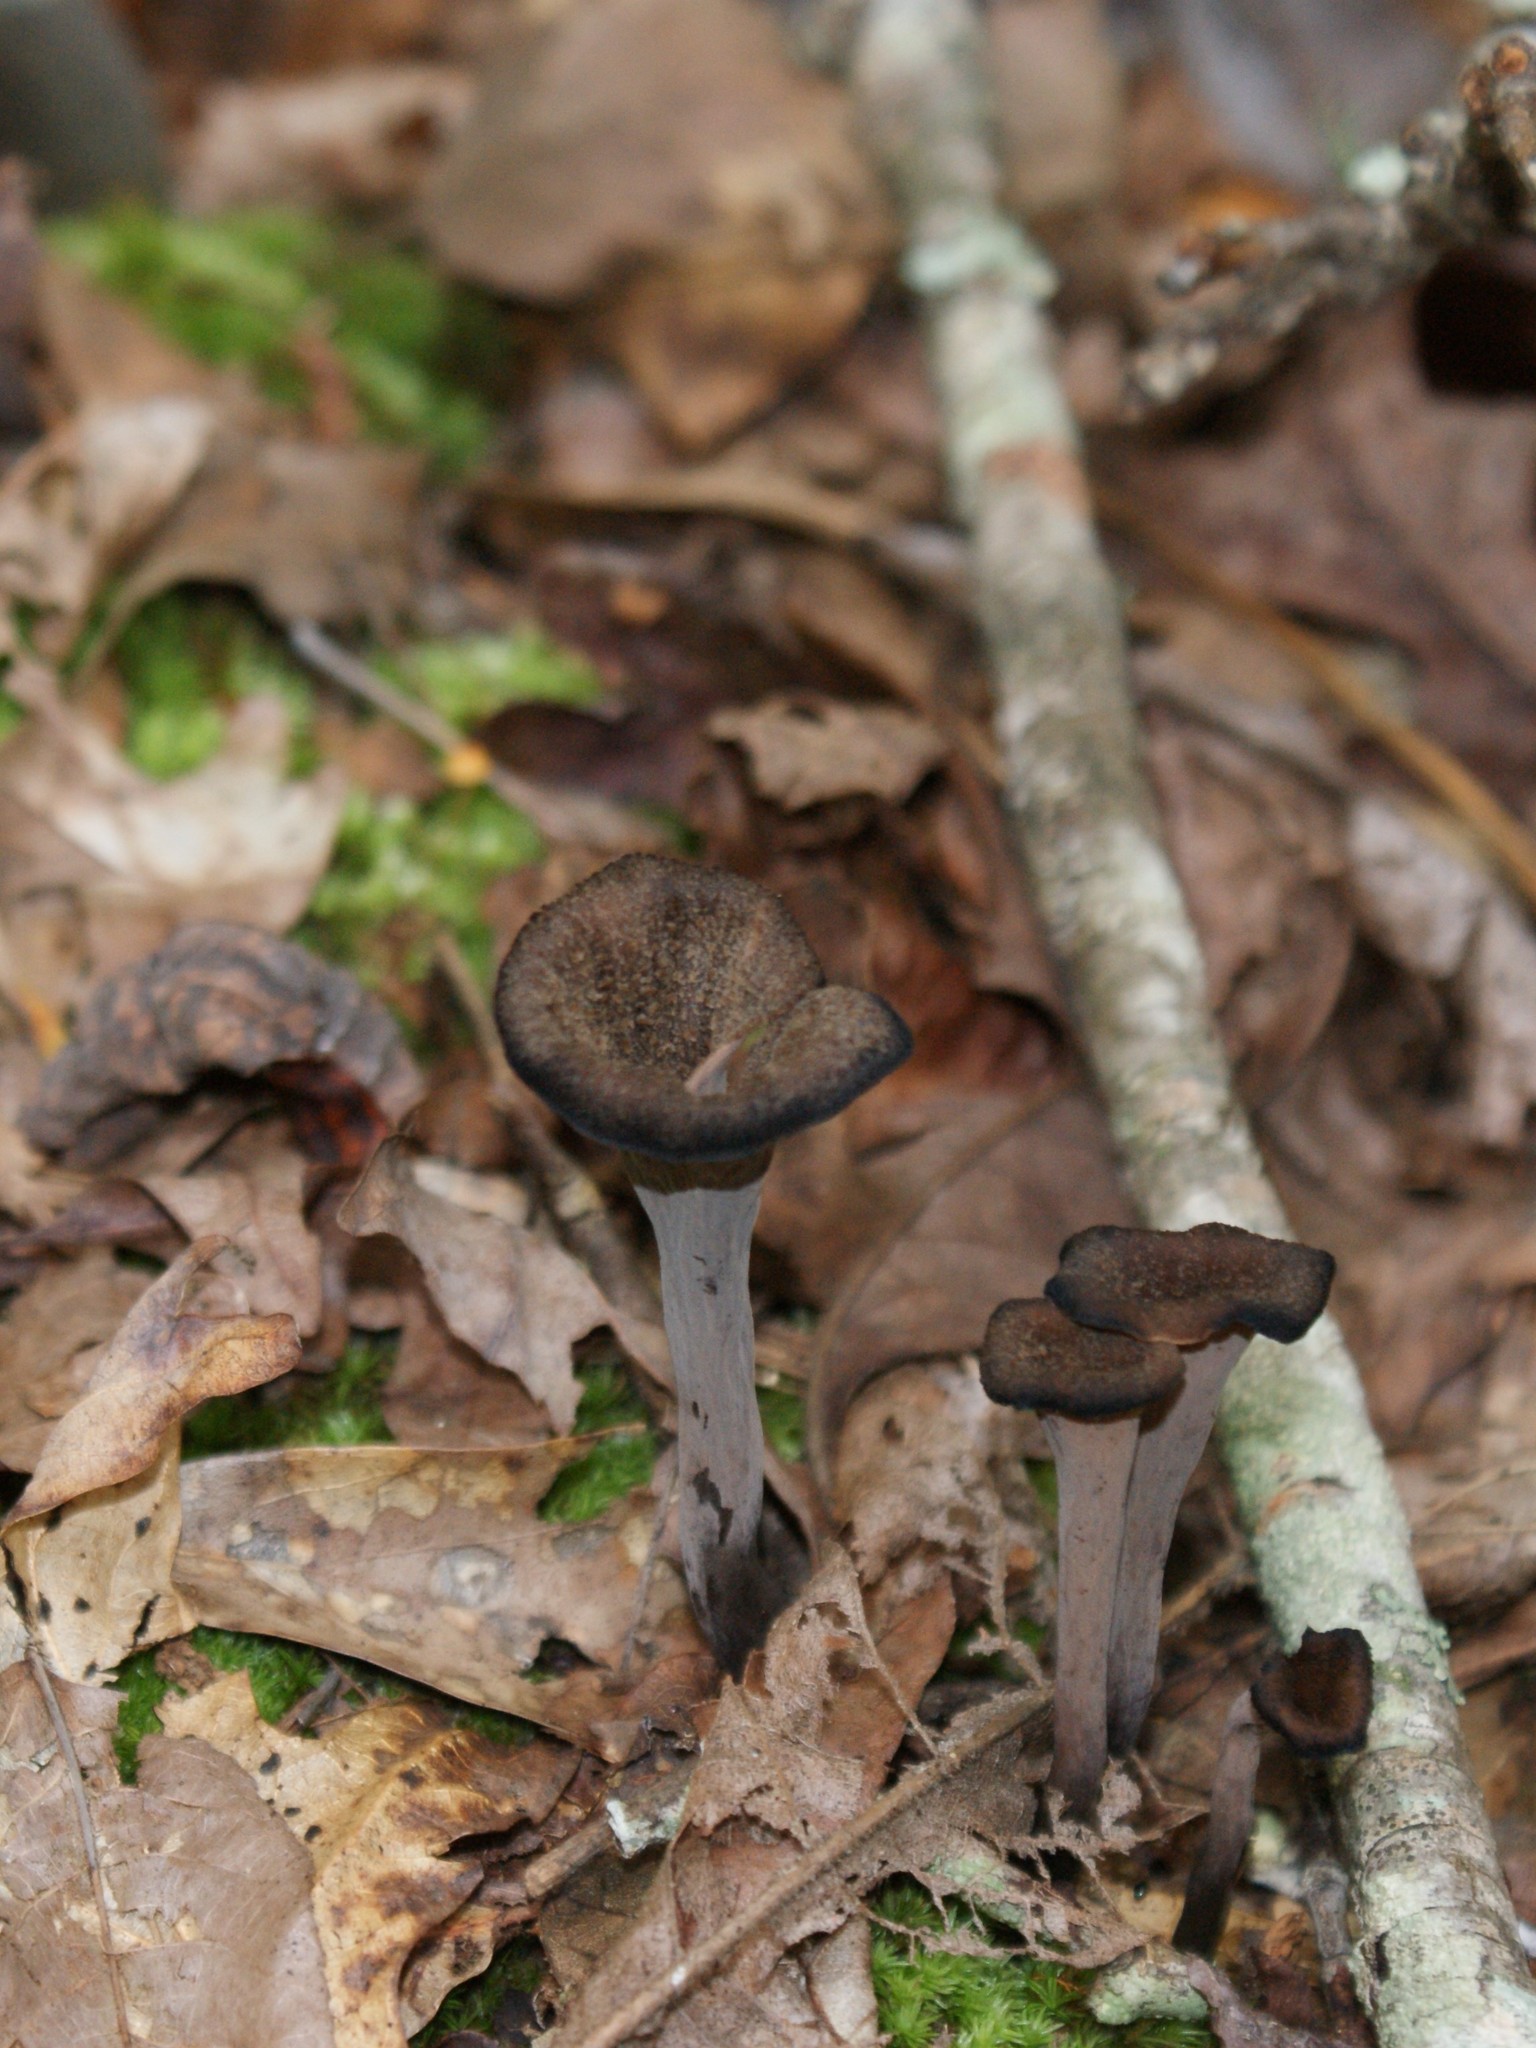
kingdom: Fungi
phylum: Basidiomycota
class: Agaricomycetes
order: Cantharellales
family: Hydnaceae
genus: Craterellus
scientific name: Craterellus cornucopioides
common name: Horn of plenty
